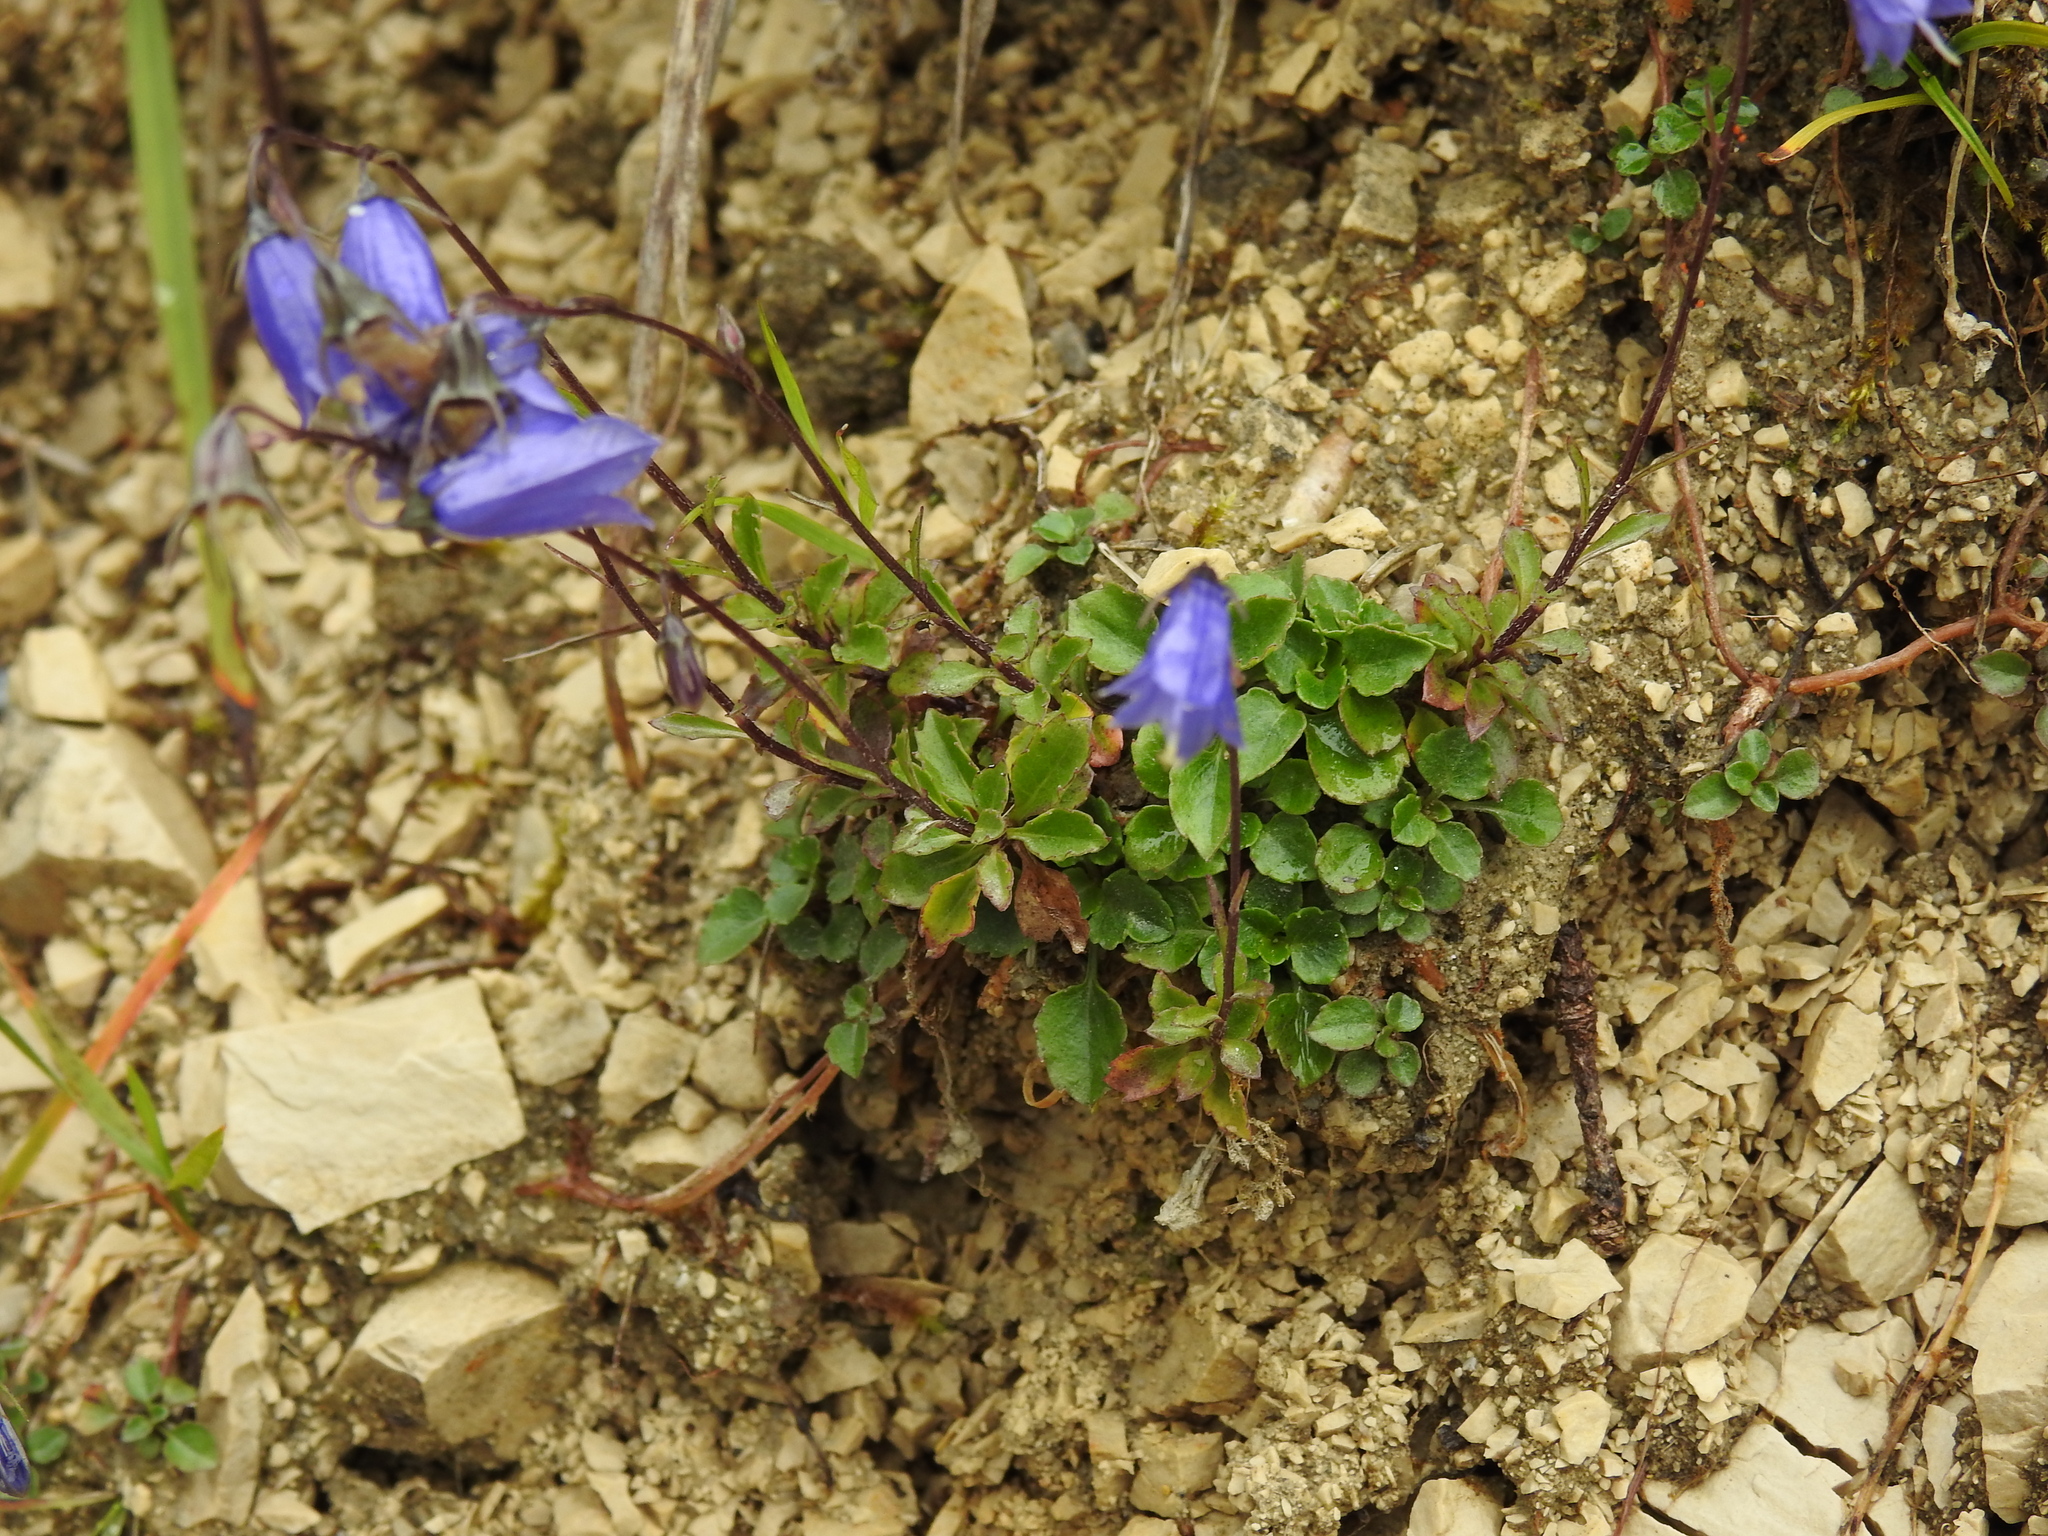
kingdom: Plantae
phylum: Tracheophyta
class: Magnoliopsida
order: Asterales
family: Campanulaceae
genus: Campanula
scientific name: Campanula cochleariifolia
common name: Fairies'-thimbles
